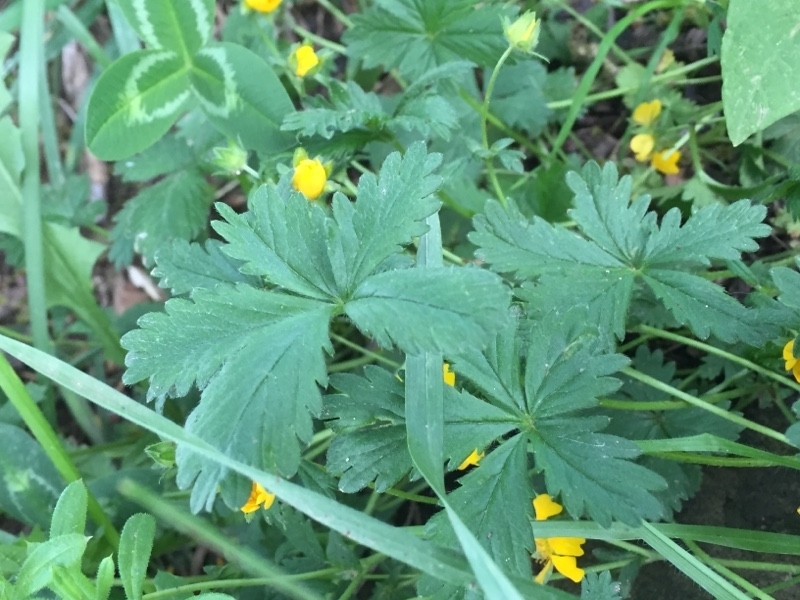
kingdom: Plantae
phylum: Tracheophyta
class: Magnoliopsida
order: Rosales
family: Rosaceae
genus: Potentilla
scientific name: Potentilla reptans
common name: Creeping cinquefoil
